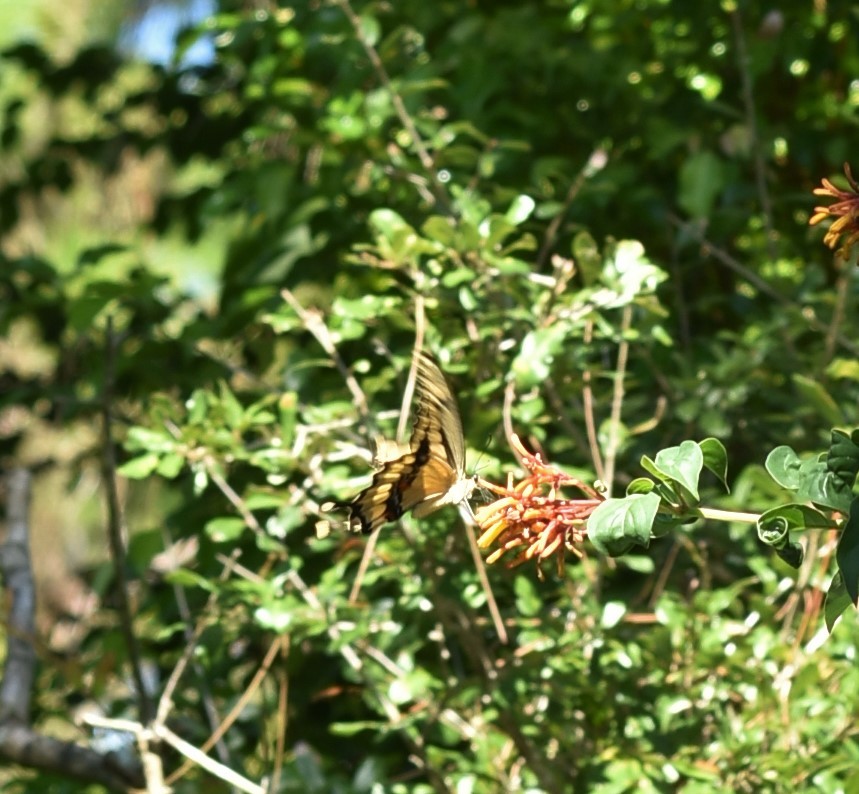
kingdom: Animalia
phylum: Arthropoda
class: Insecta
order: Lepidoptera
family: Papilionidae
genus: Papilio
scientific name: Papilio cresphontes
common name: Giant swallowtail
